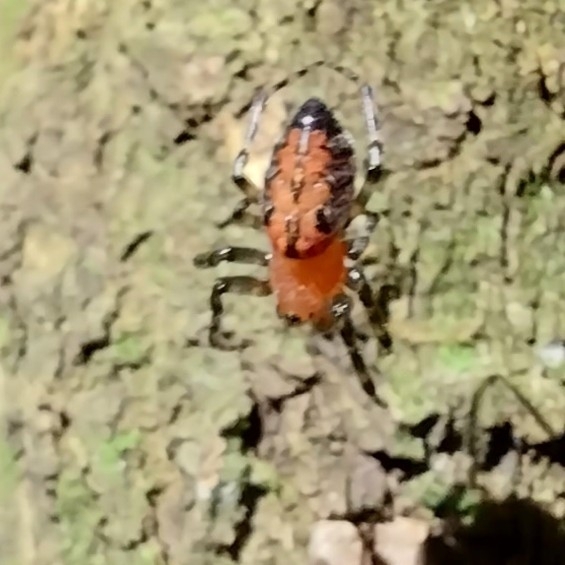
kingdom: Animalia
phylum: Arthropoda
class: Arachnida
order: Araneae
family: Araneidae
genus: Alpaida
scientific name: Alpaida scriba
